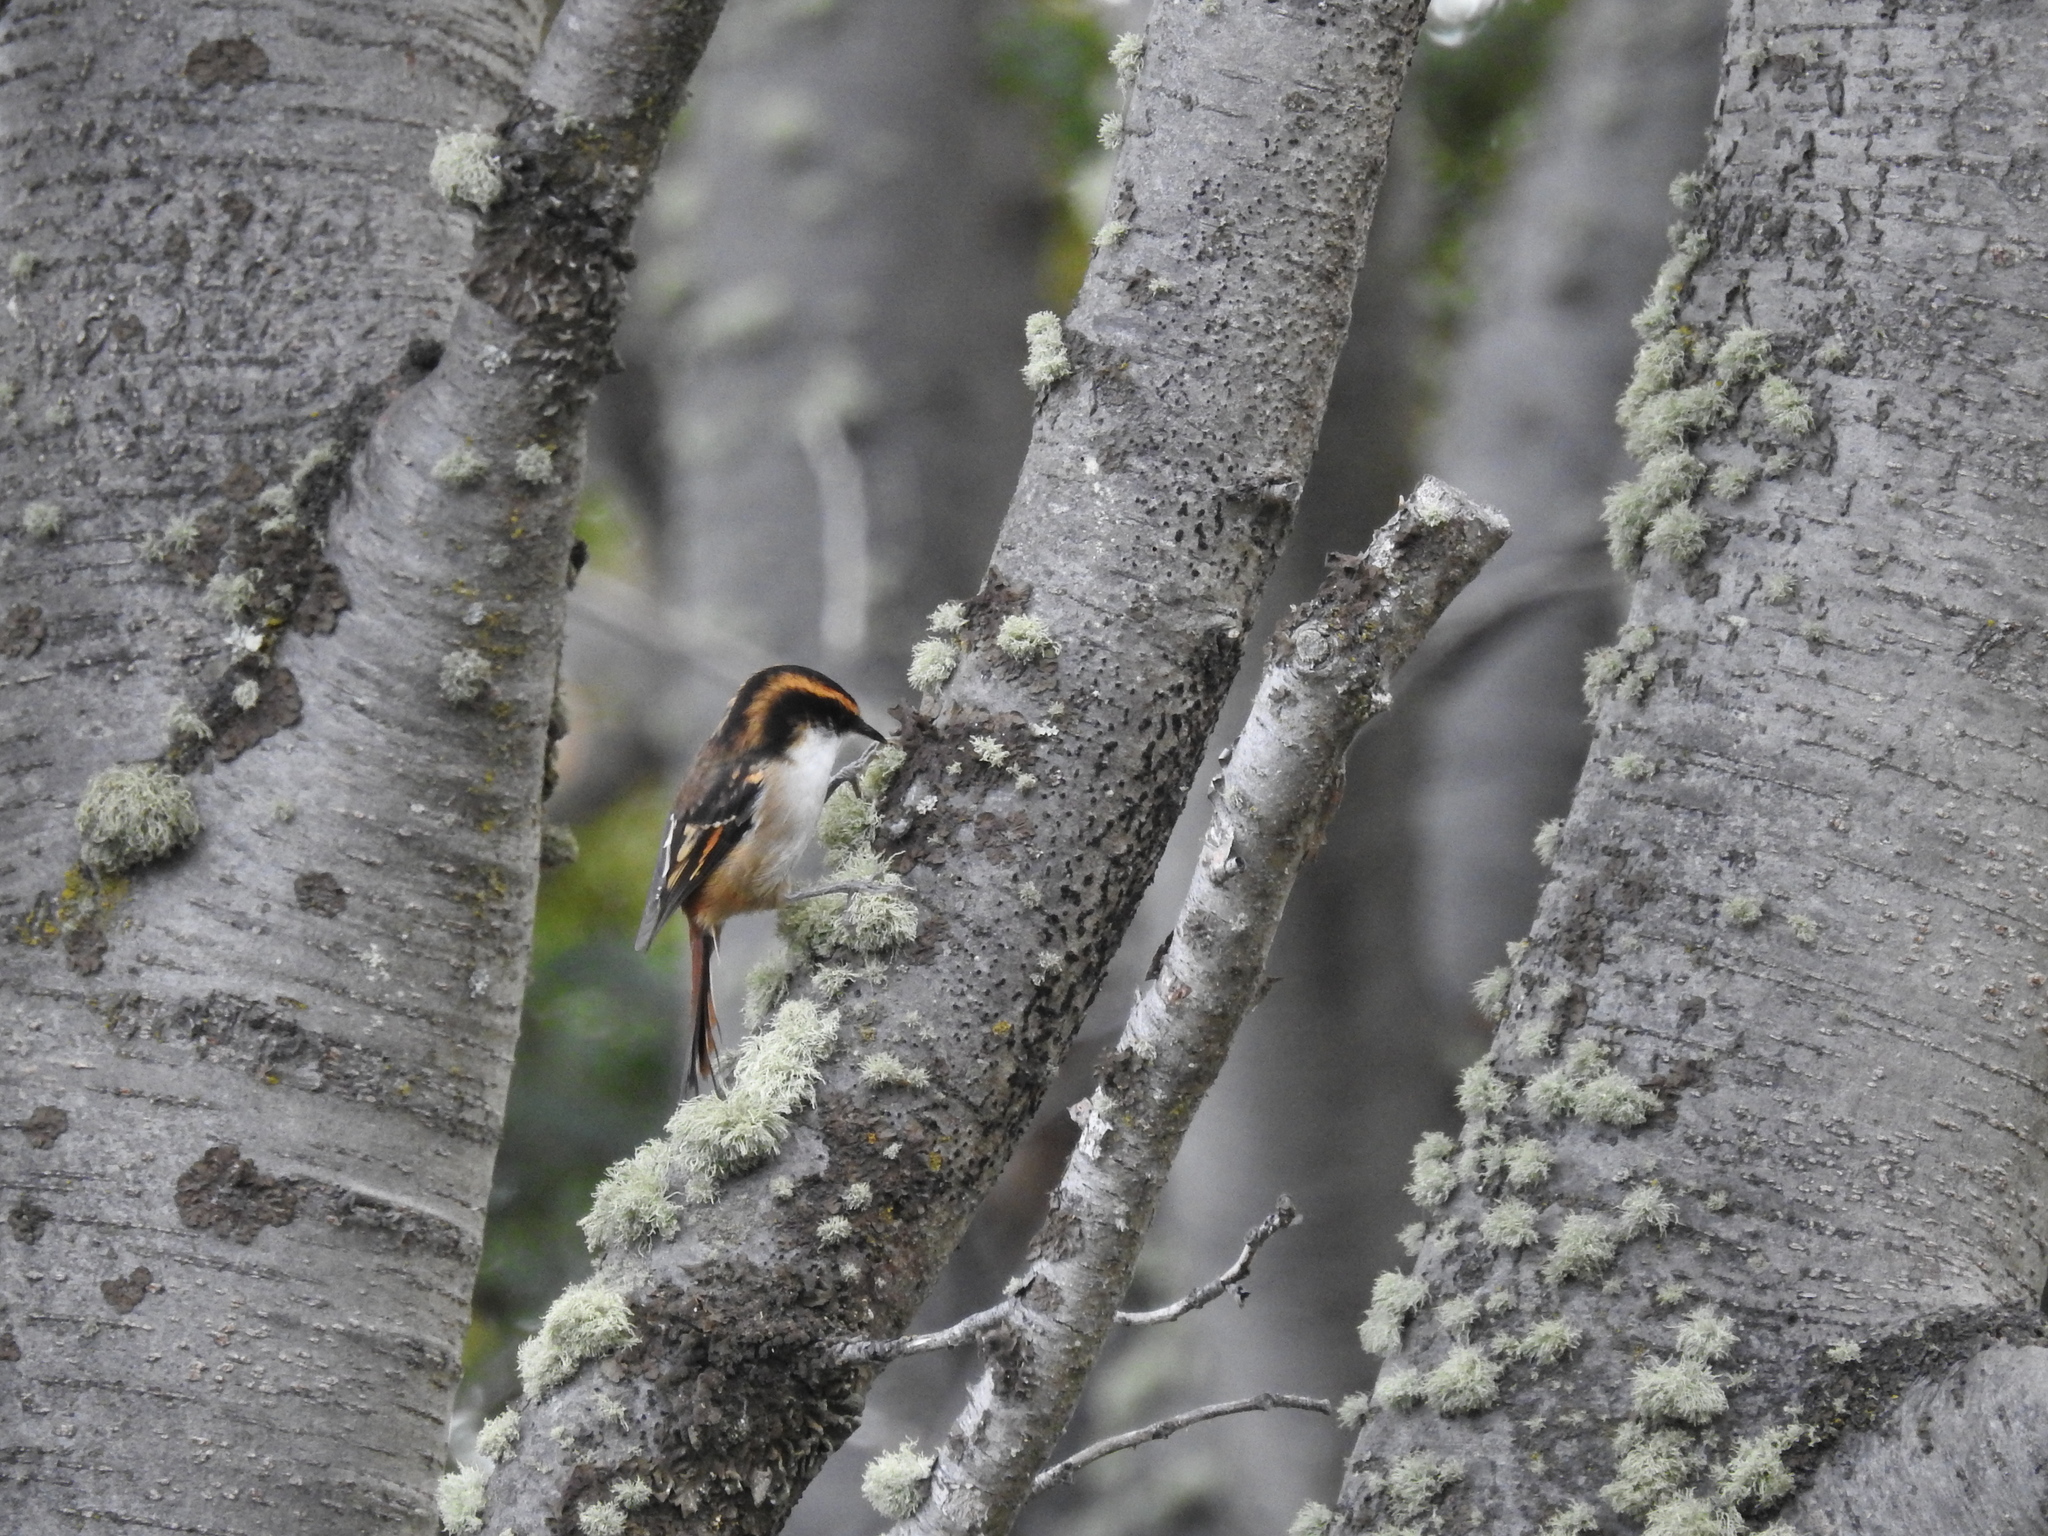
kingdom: Animalia
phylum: Chordata
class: Aves
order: Passeriformes
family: Furnariidae
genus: Aphrastura
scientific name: Aphrastura spinicauda
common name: Thorn-tailed rayadito
